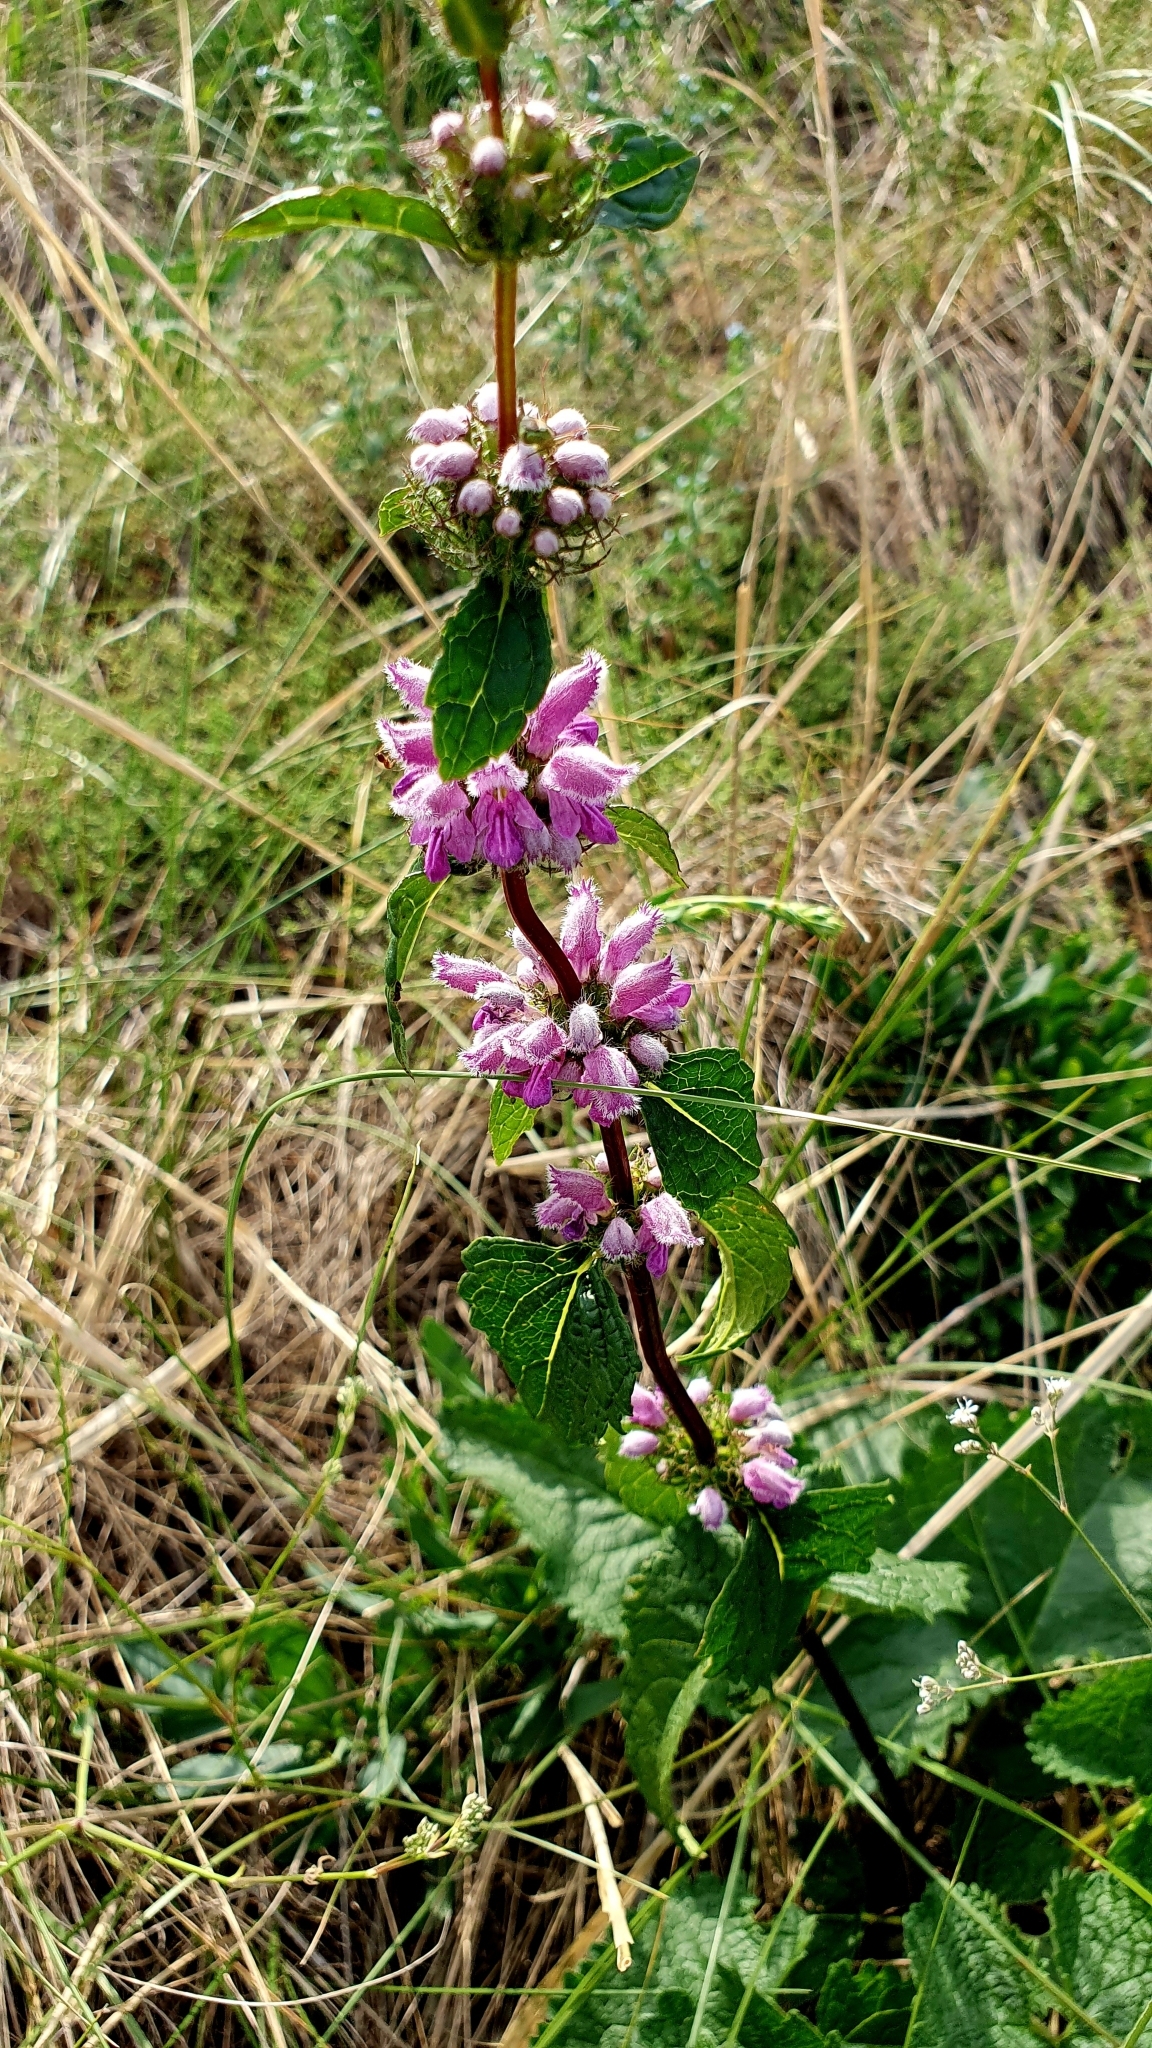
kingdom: Plantae
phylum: Tracheophyta
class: Magnoliopsida
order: Lamiales
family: Lamiaceae
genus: Phlomoides
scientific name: Phlomoides tuberosa
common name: Tuberous jerusalem sage
